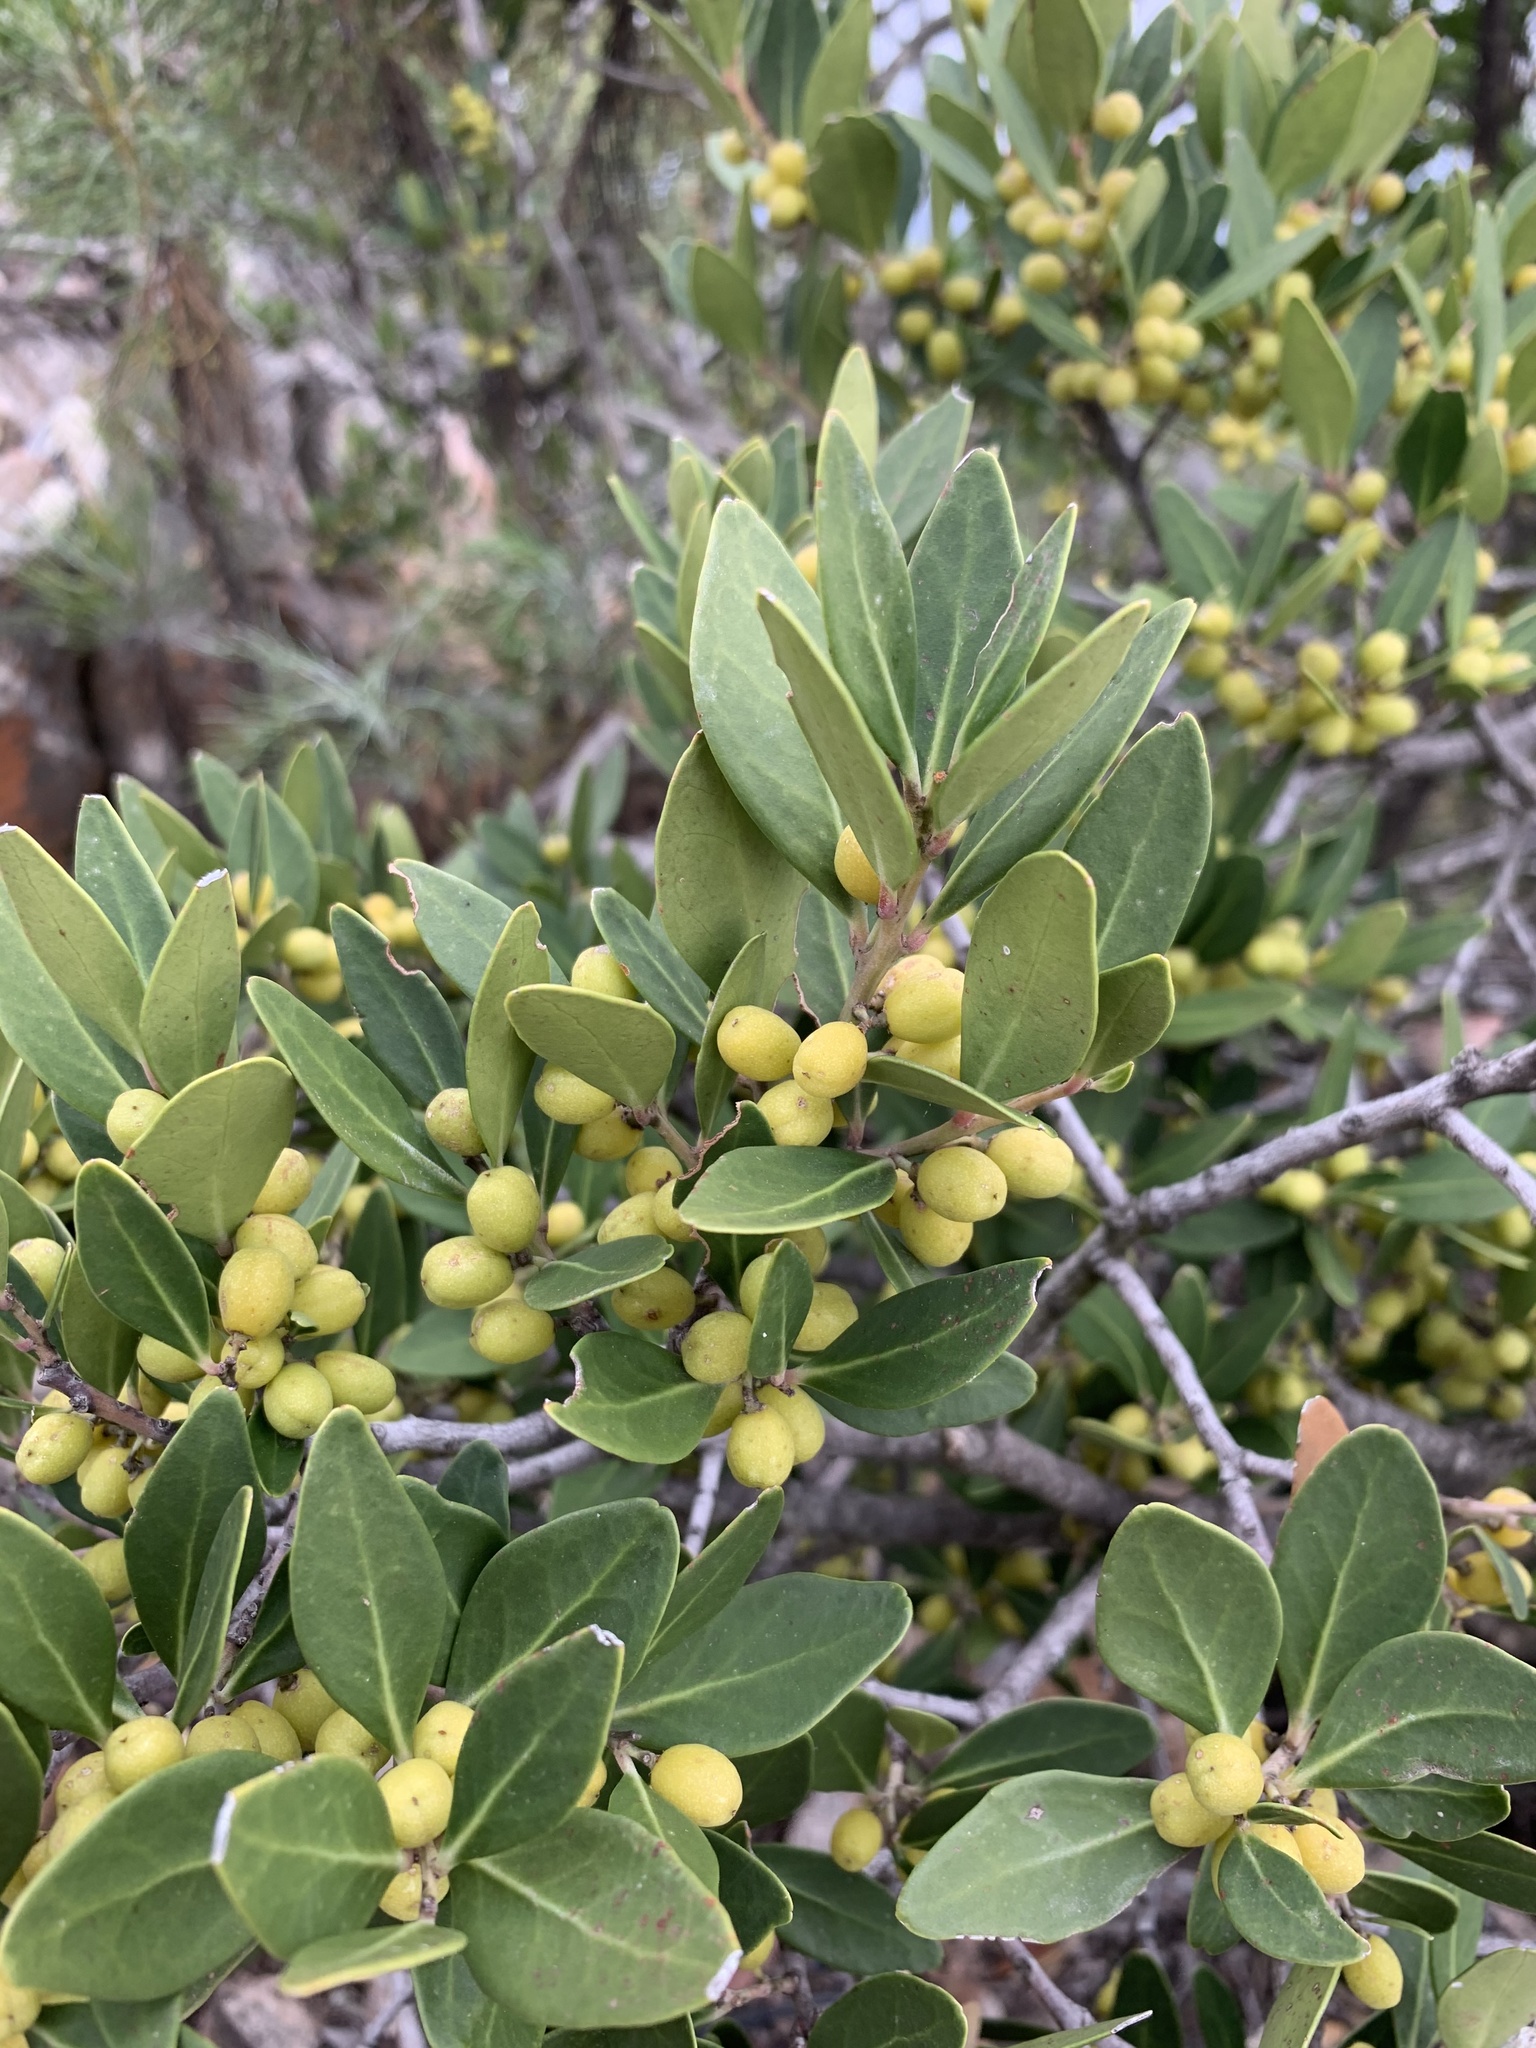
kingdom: Plantae
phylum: Tracheophyta
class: Magnoliopsida
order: Celastrales
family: Celastraceae
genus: Gymnosporia
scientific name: Gymnosporia laurina
